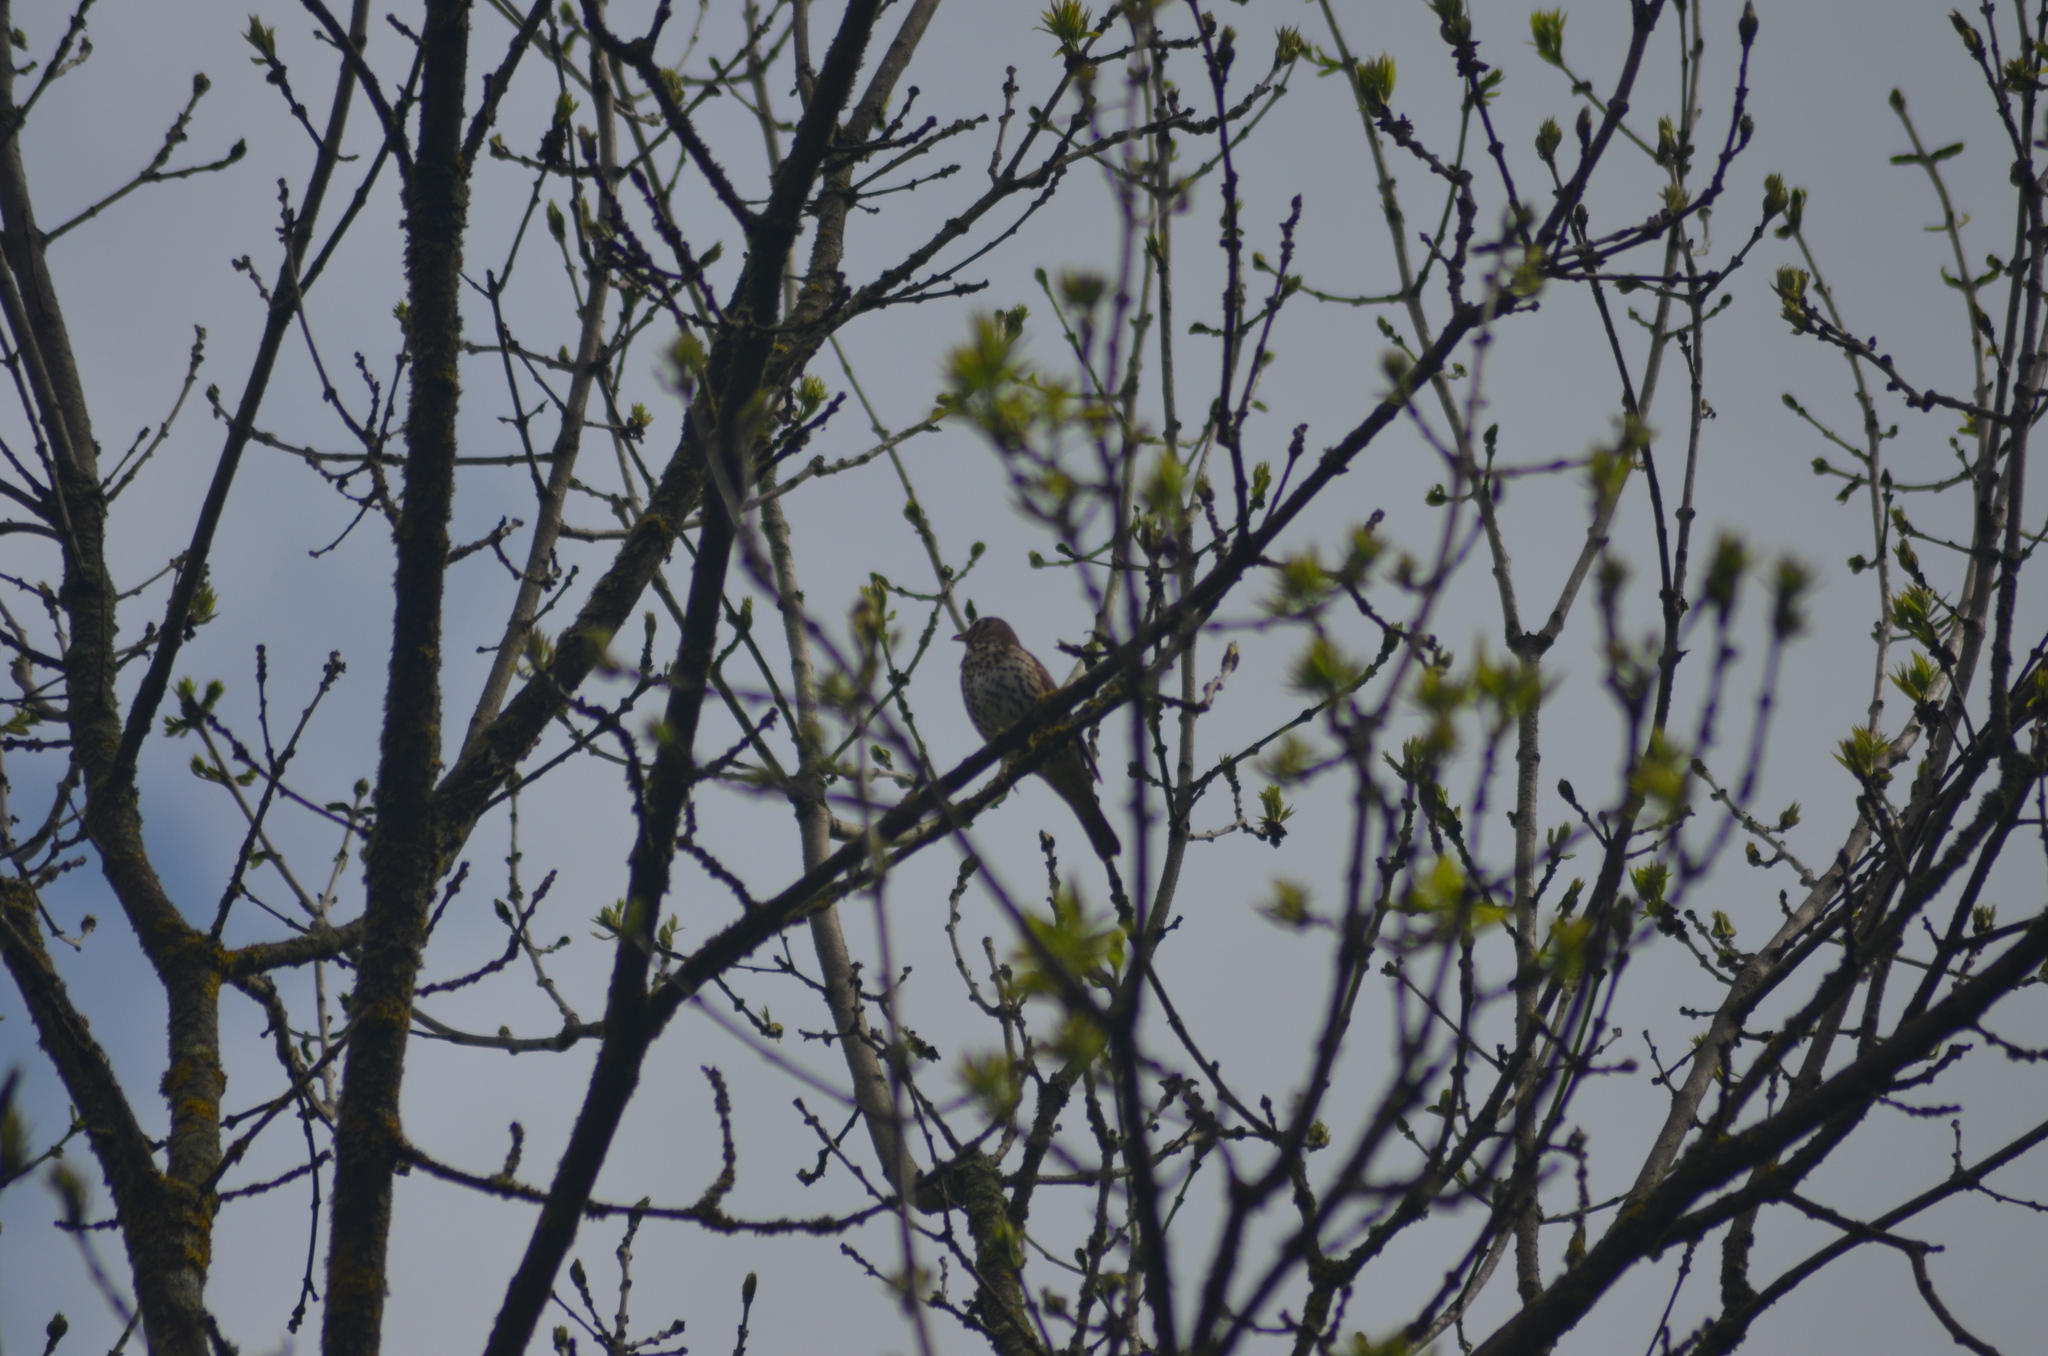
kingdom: Animalia
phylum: Chordata
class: Aves
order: Passeriformes
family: Turdidae
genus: Turdus
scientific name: Turdus philomelos
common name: Song thrush
